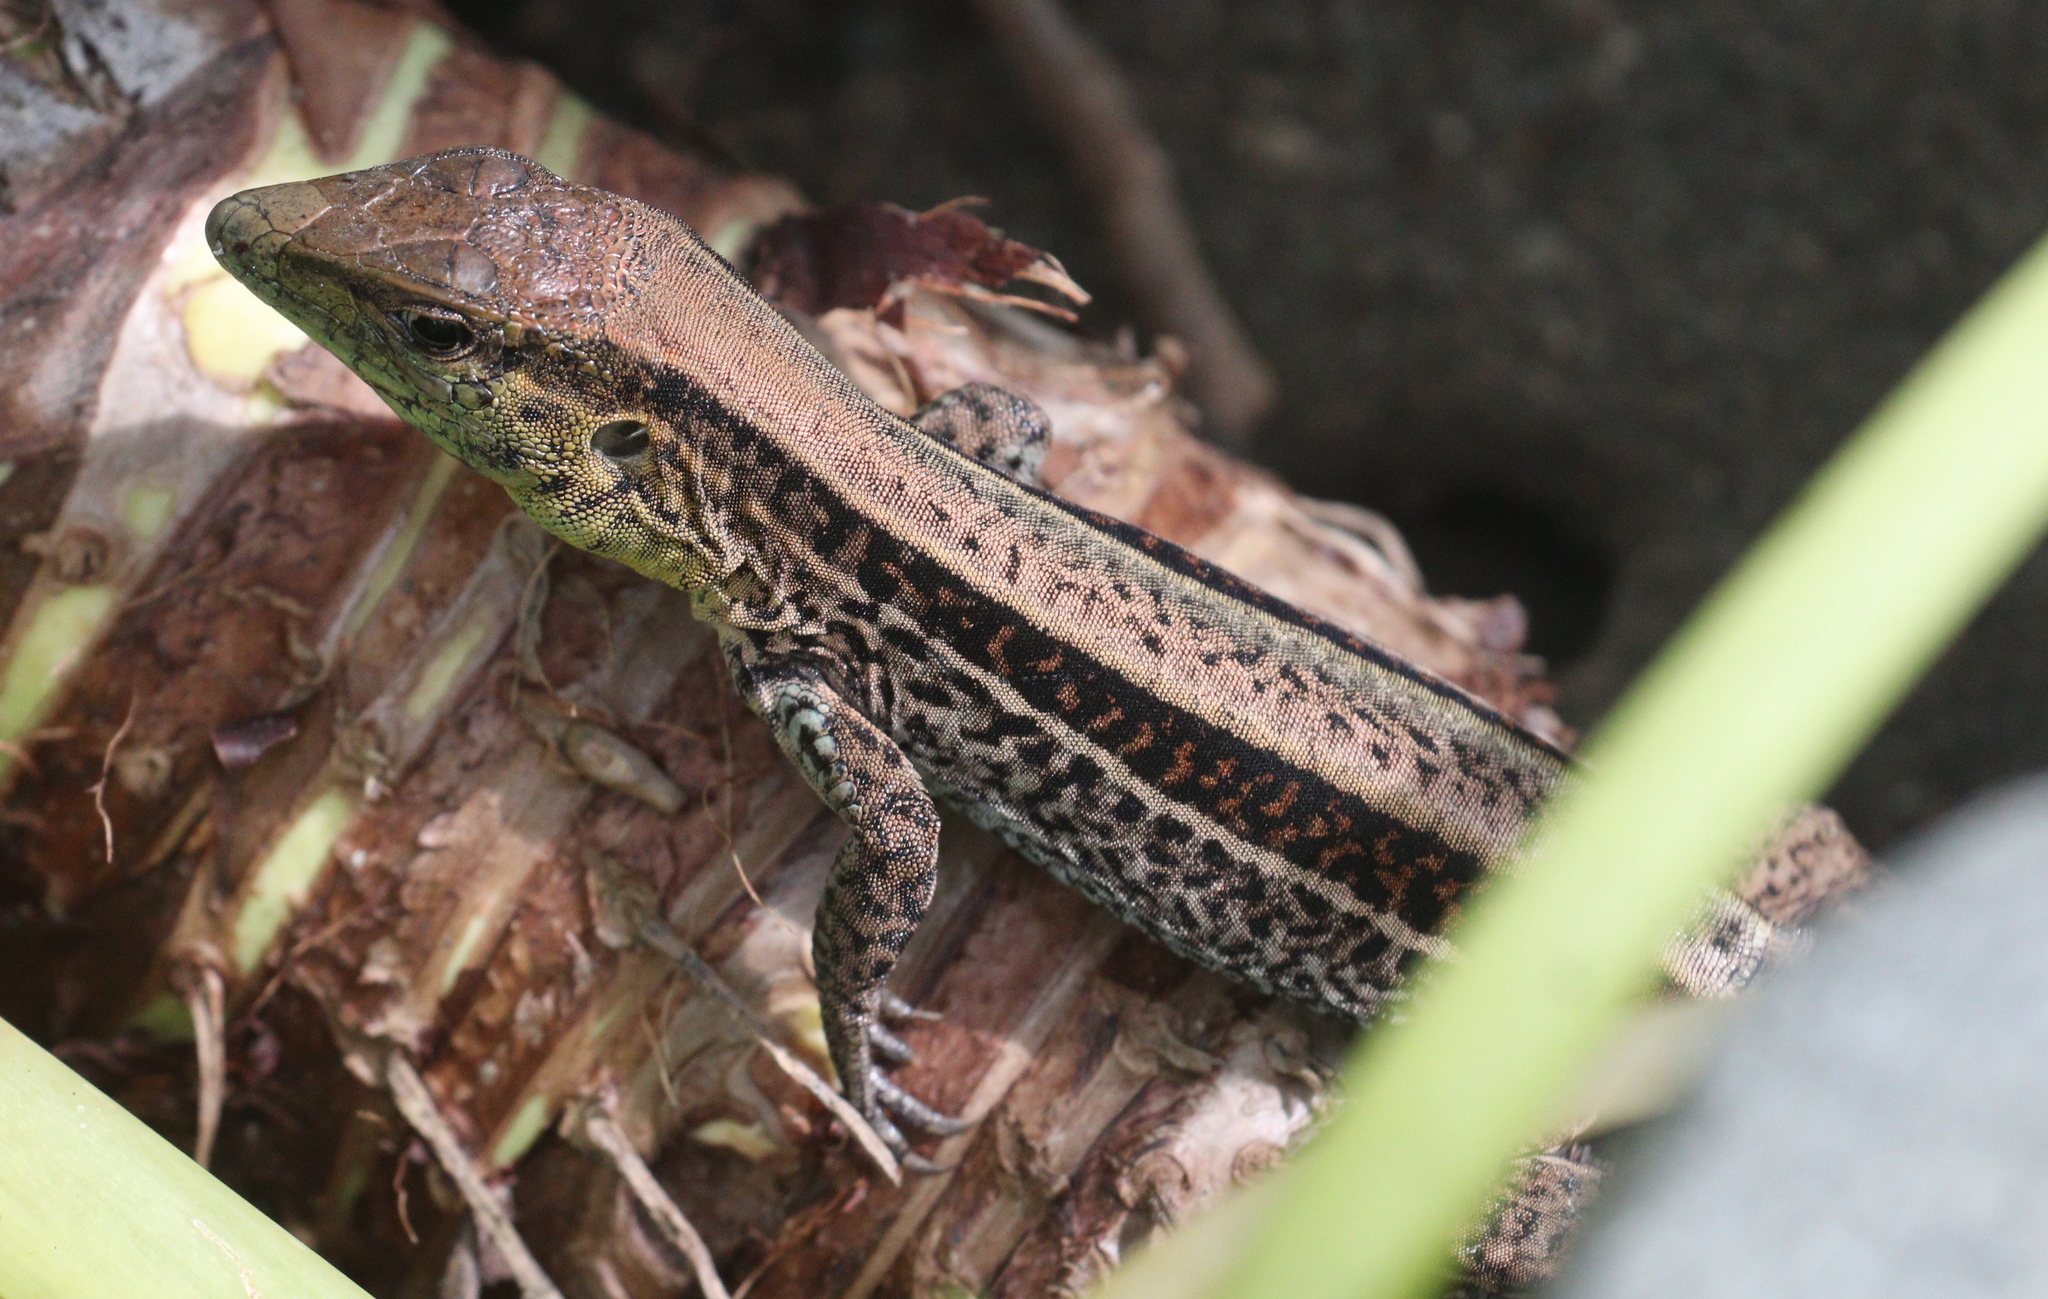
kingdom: Animalia
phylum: Chordata
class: Squamata
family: Teiidae
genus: Holcosus
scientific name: Holcosus quadrilineatus
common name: Four-lined ameiva
